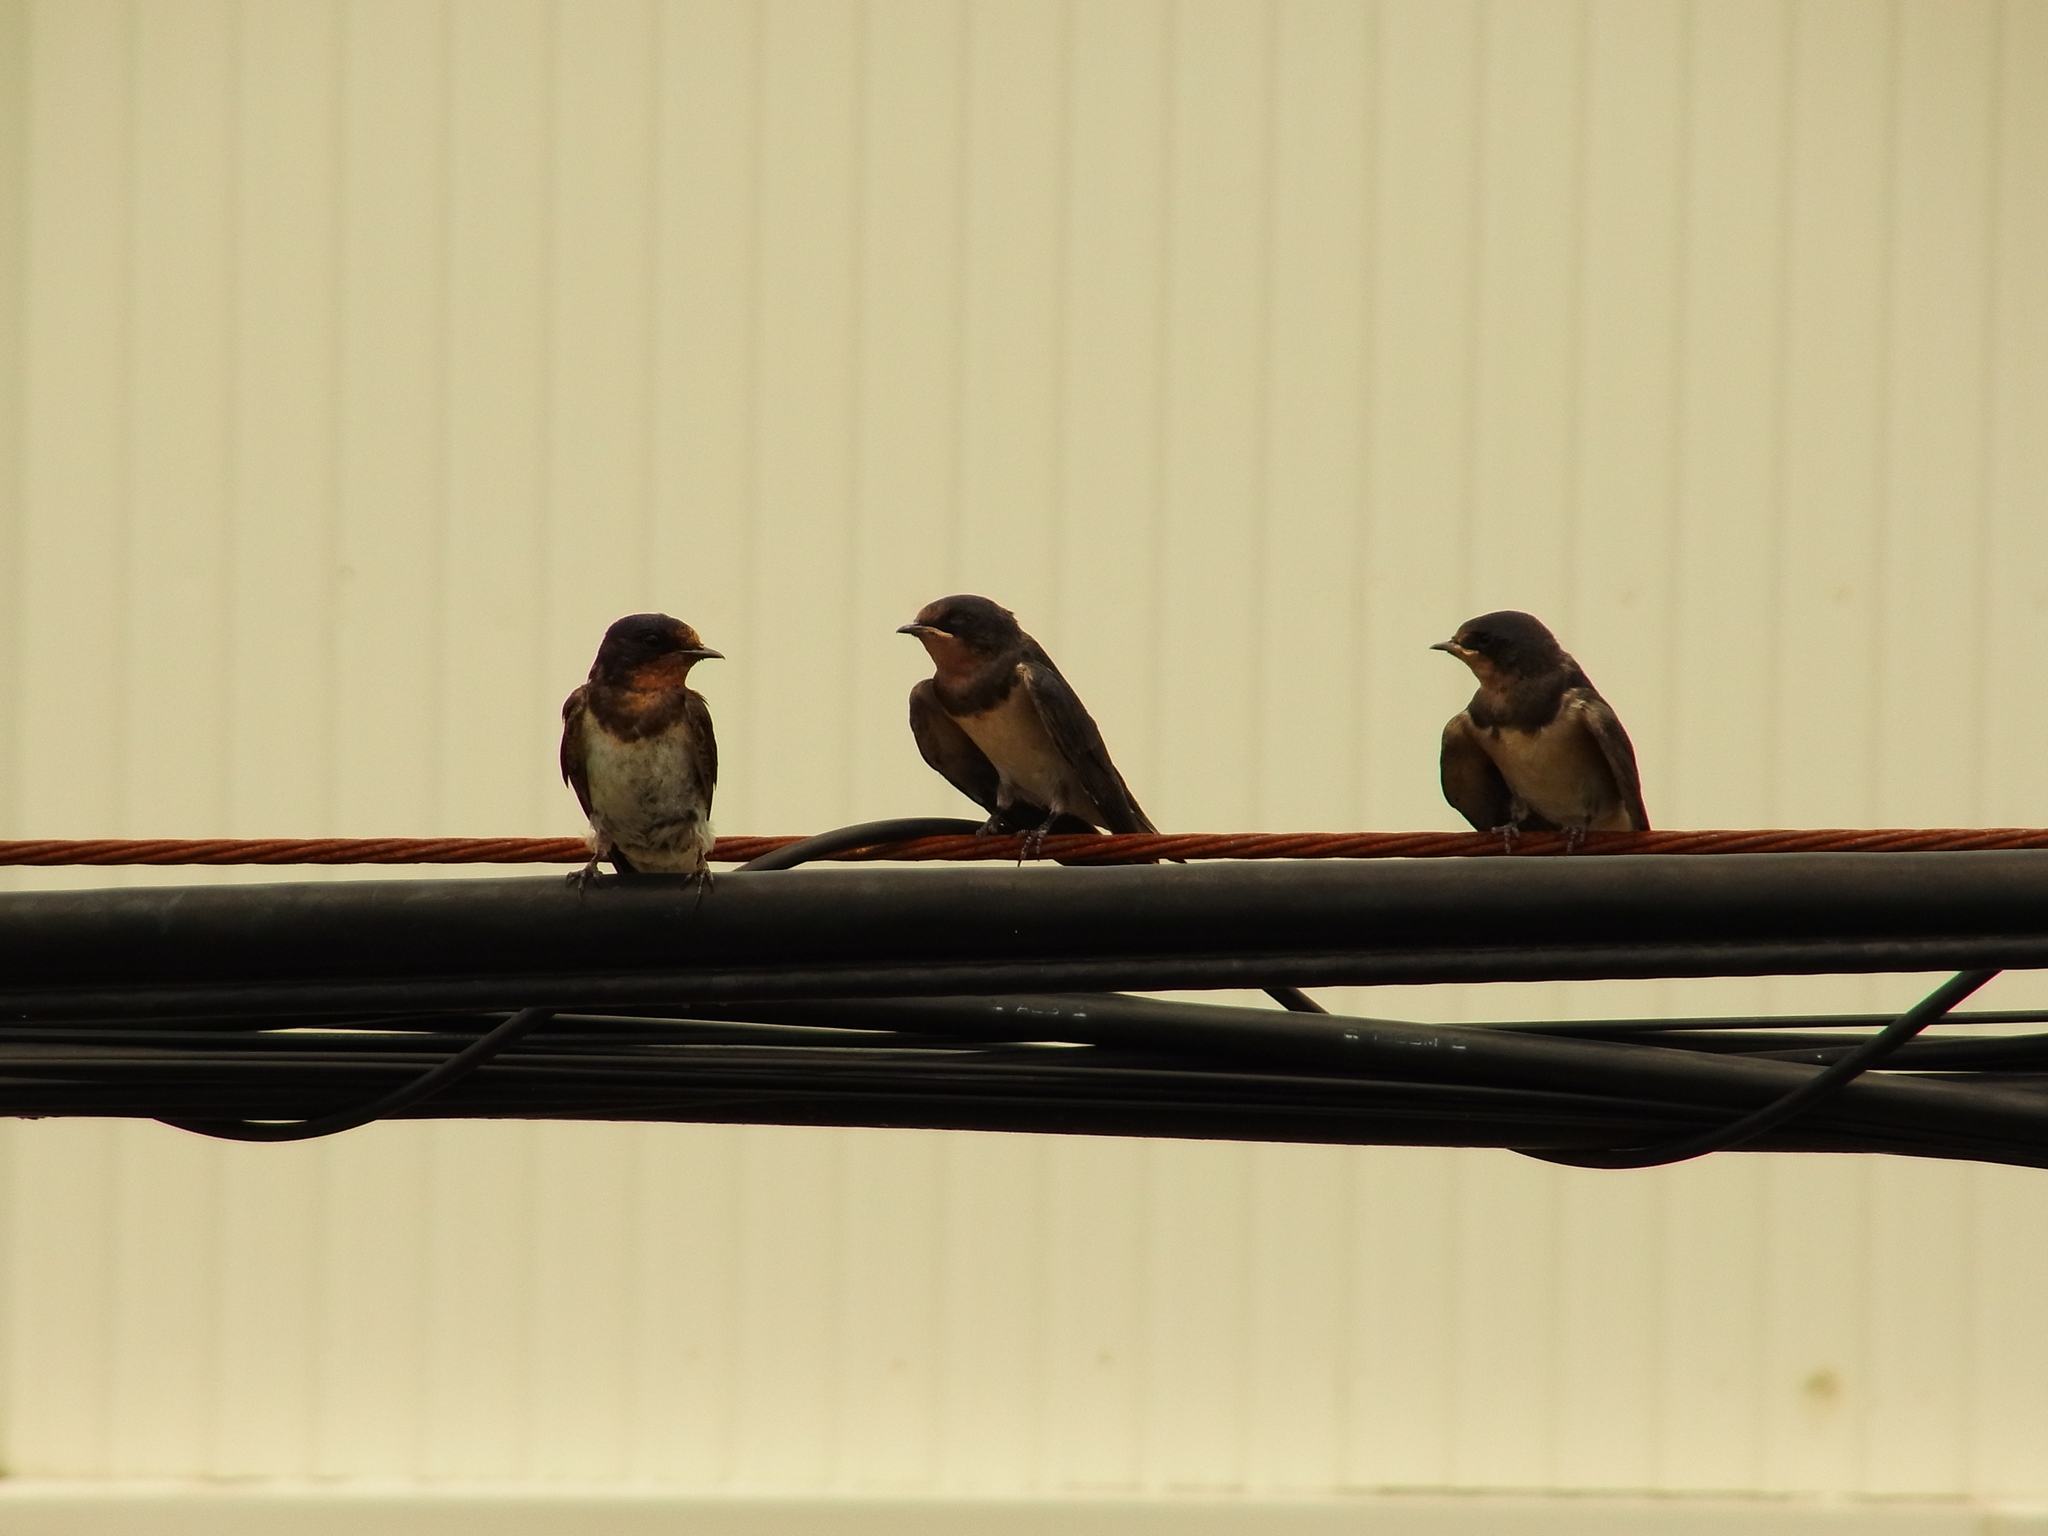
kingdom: Animalia
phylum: Chordata
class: Aves
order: Passeriformes
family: Hirundinidae
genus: Hirundo
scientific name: Hirundo rustica
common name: Barn swallow
